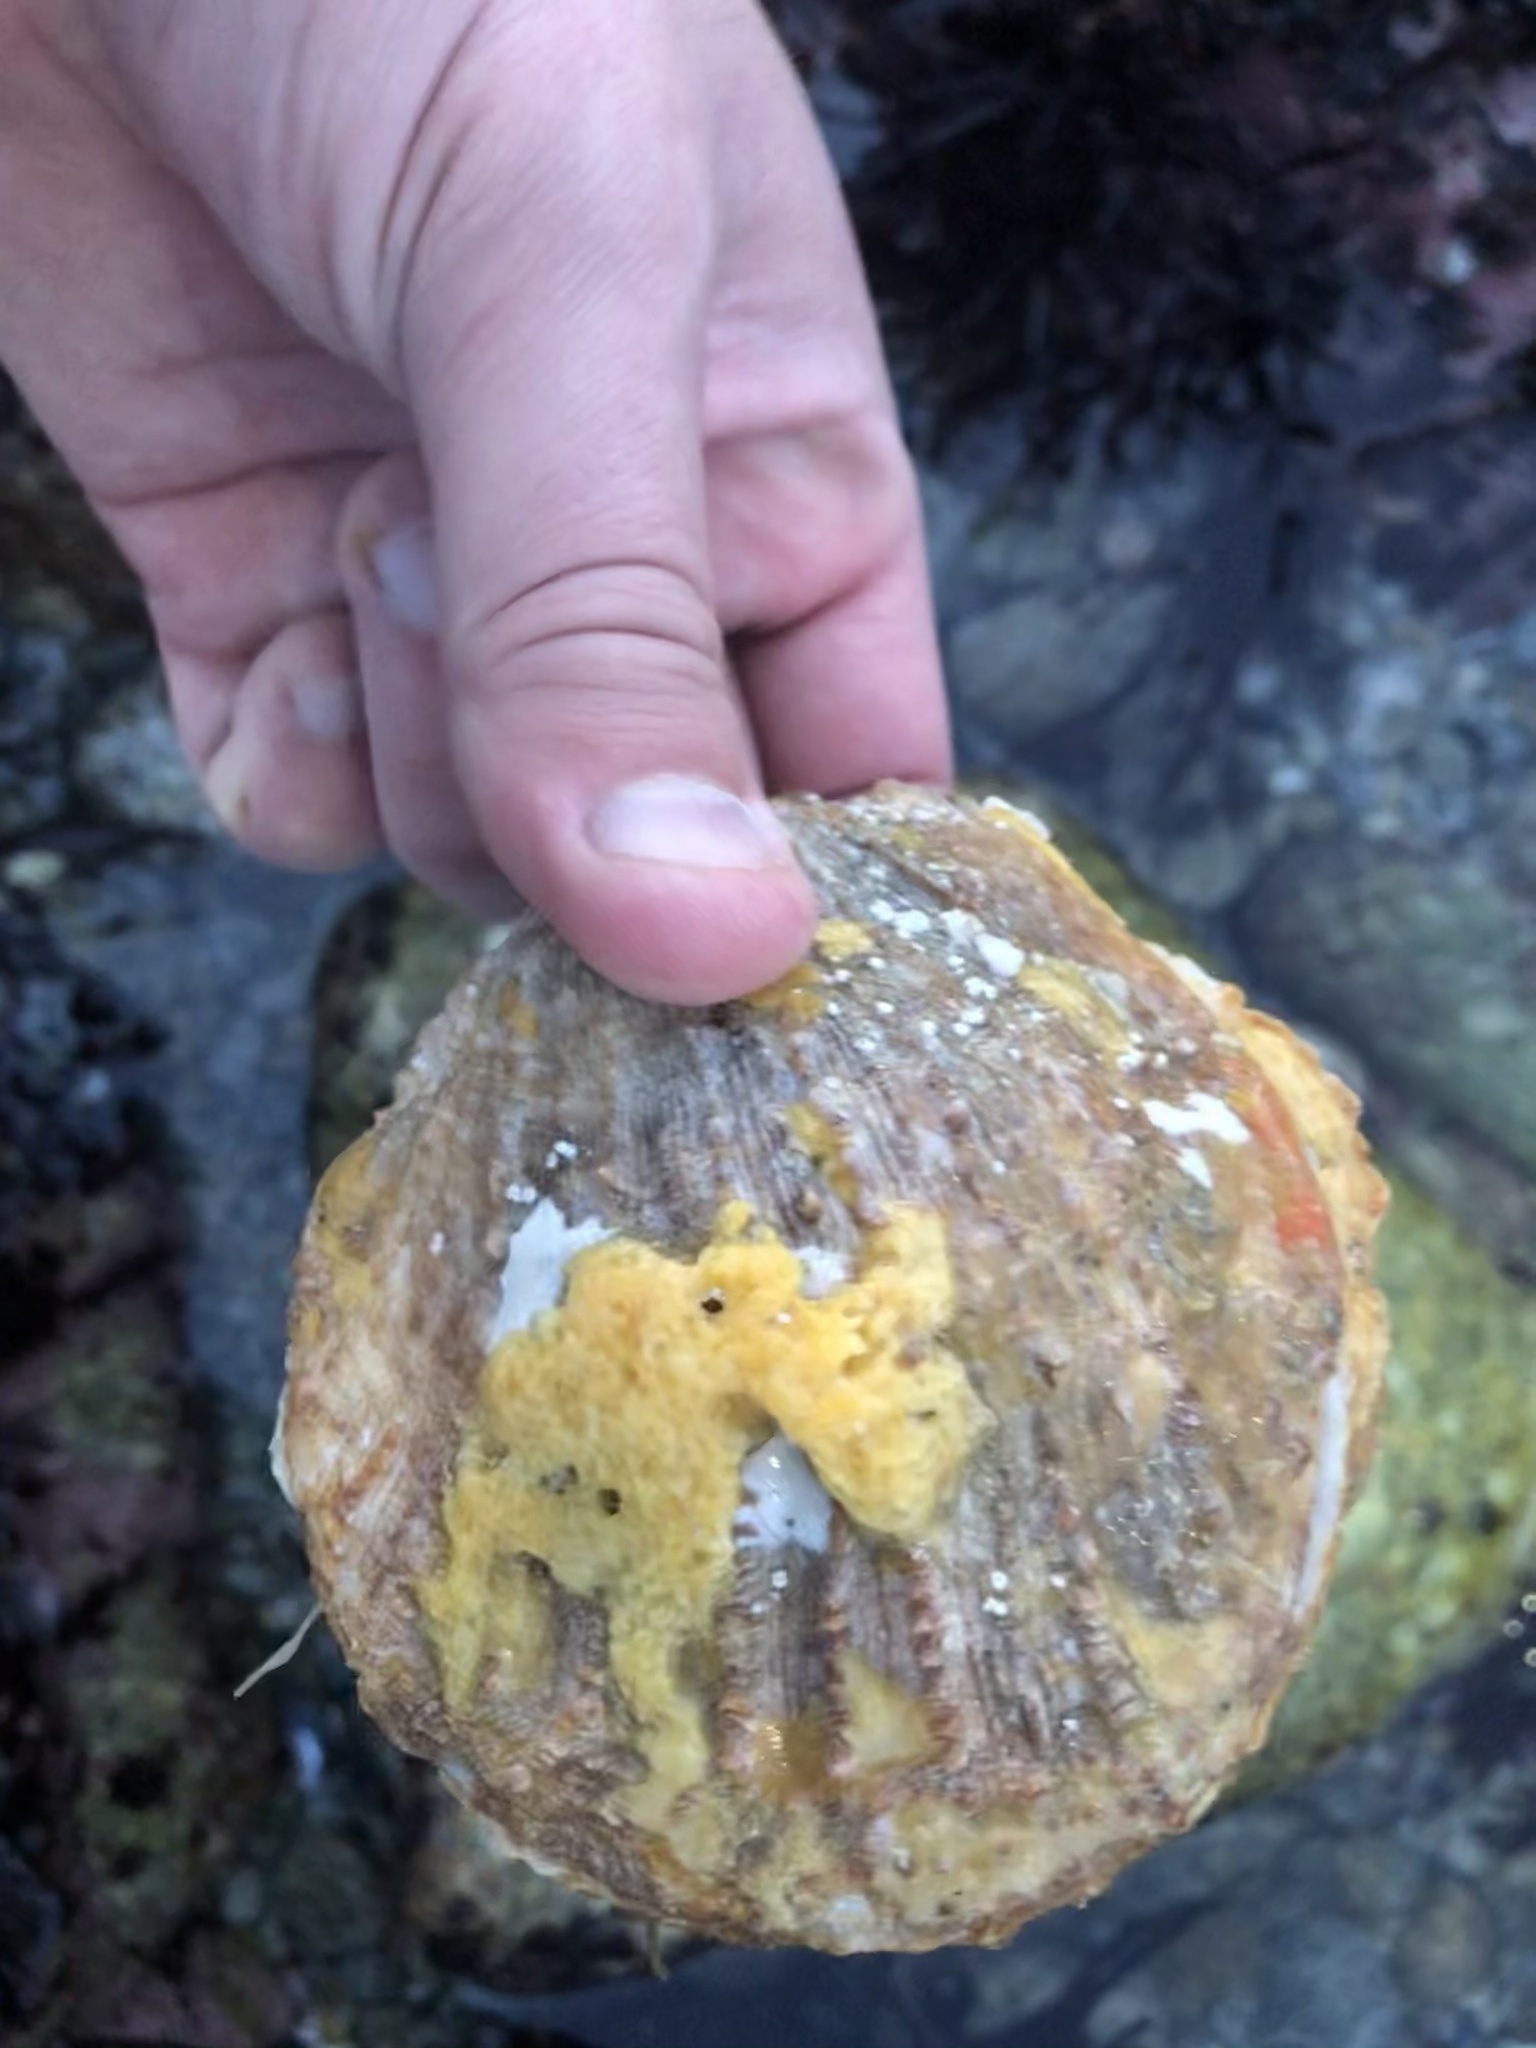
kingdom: Animalia
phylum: Mollusca
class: Bivalvia
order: Pectinida
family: Pectinidae
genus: Crassadoma
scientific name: Crassadoma gigantea
